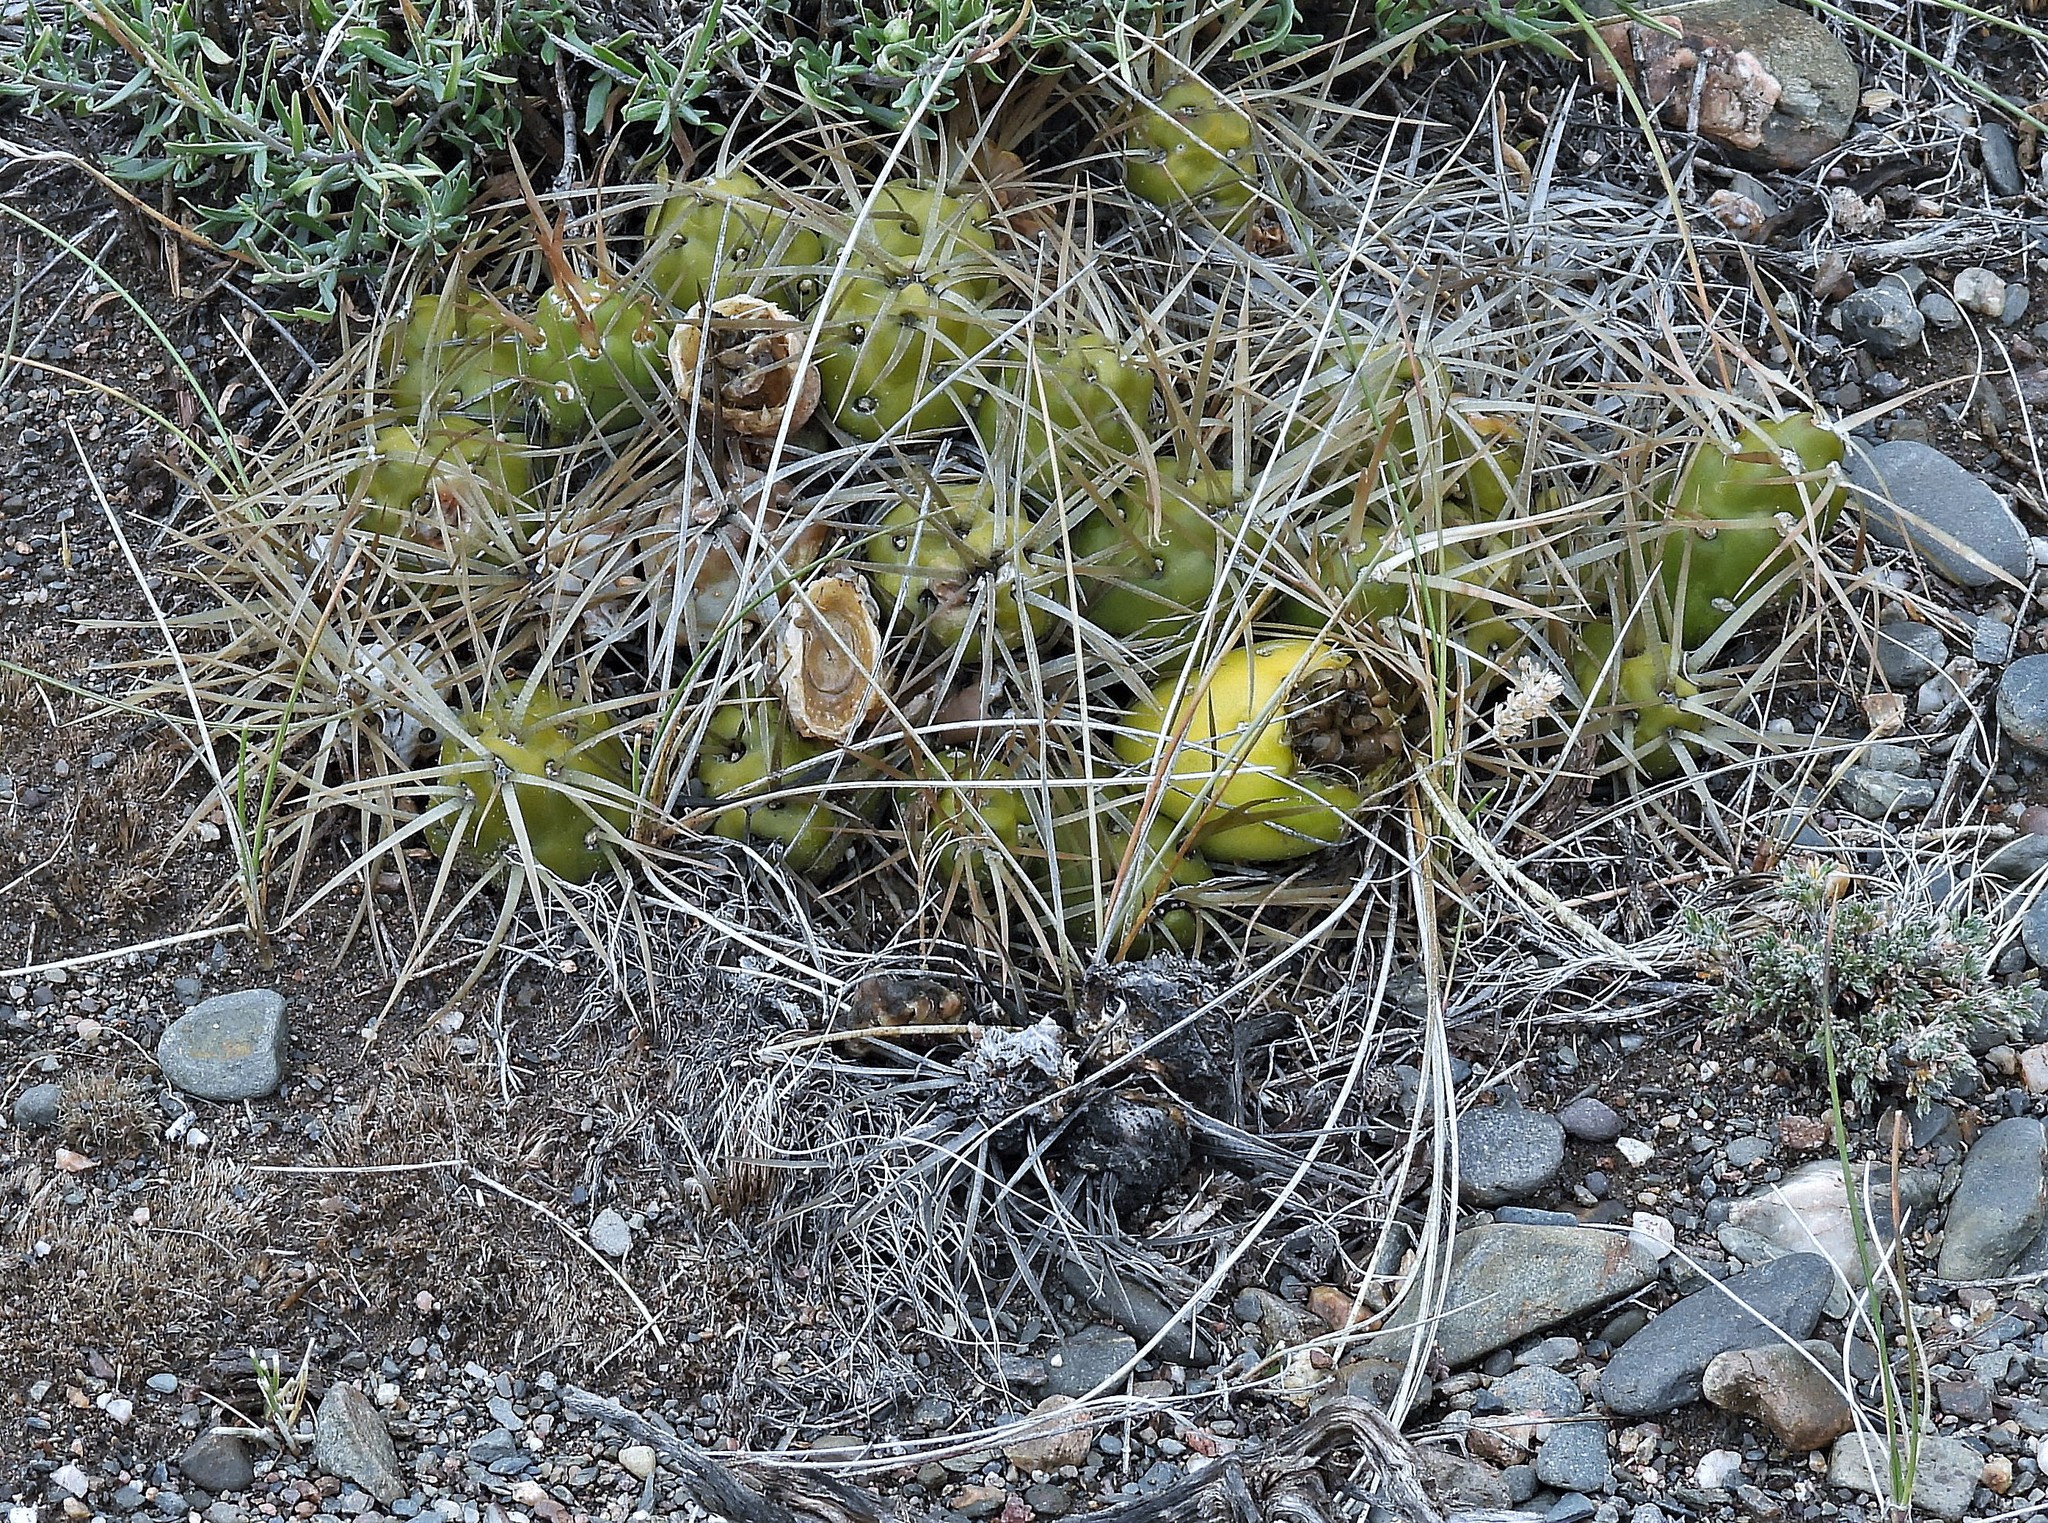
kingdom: Plantae
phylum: Tracheophyta
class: Magnoliopsida
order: Caryophyllales
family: Cactaceae
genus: Maihueniopsis
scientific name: Maihueniopsis platyacantha
